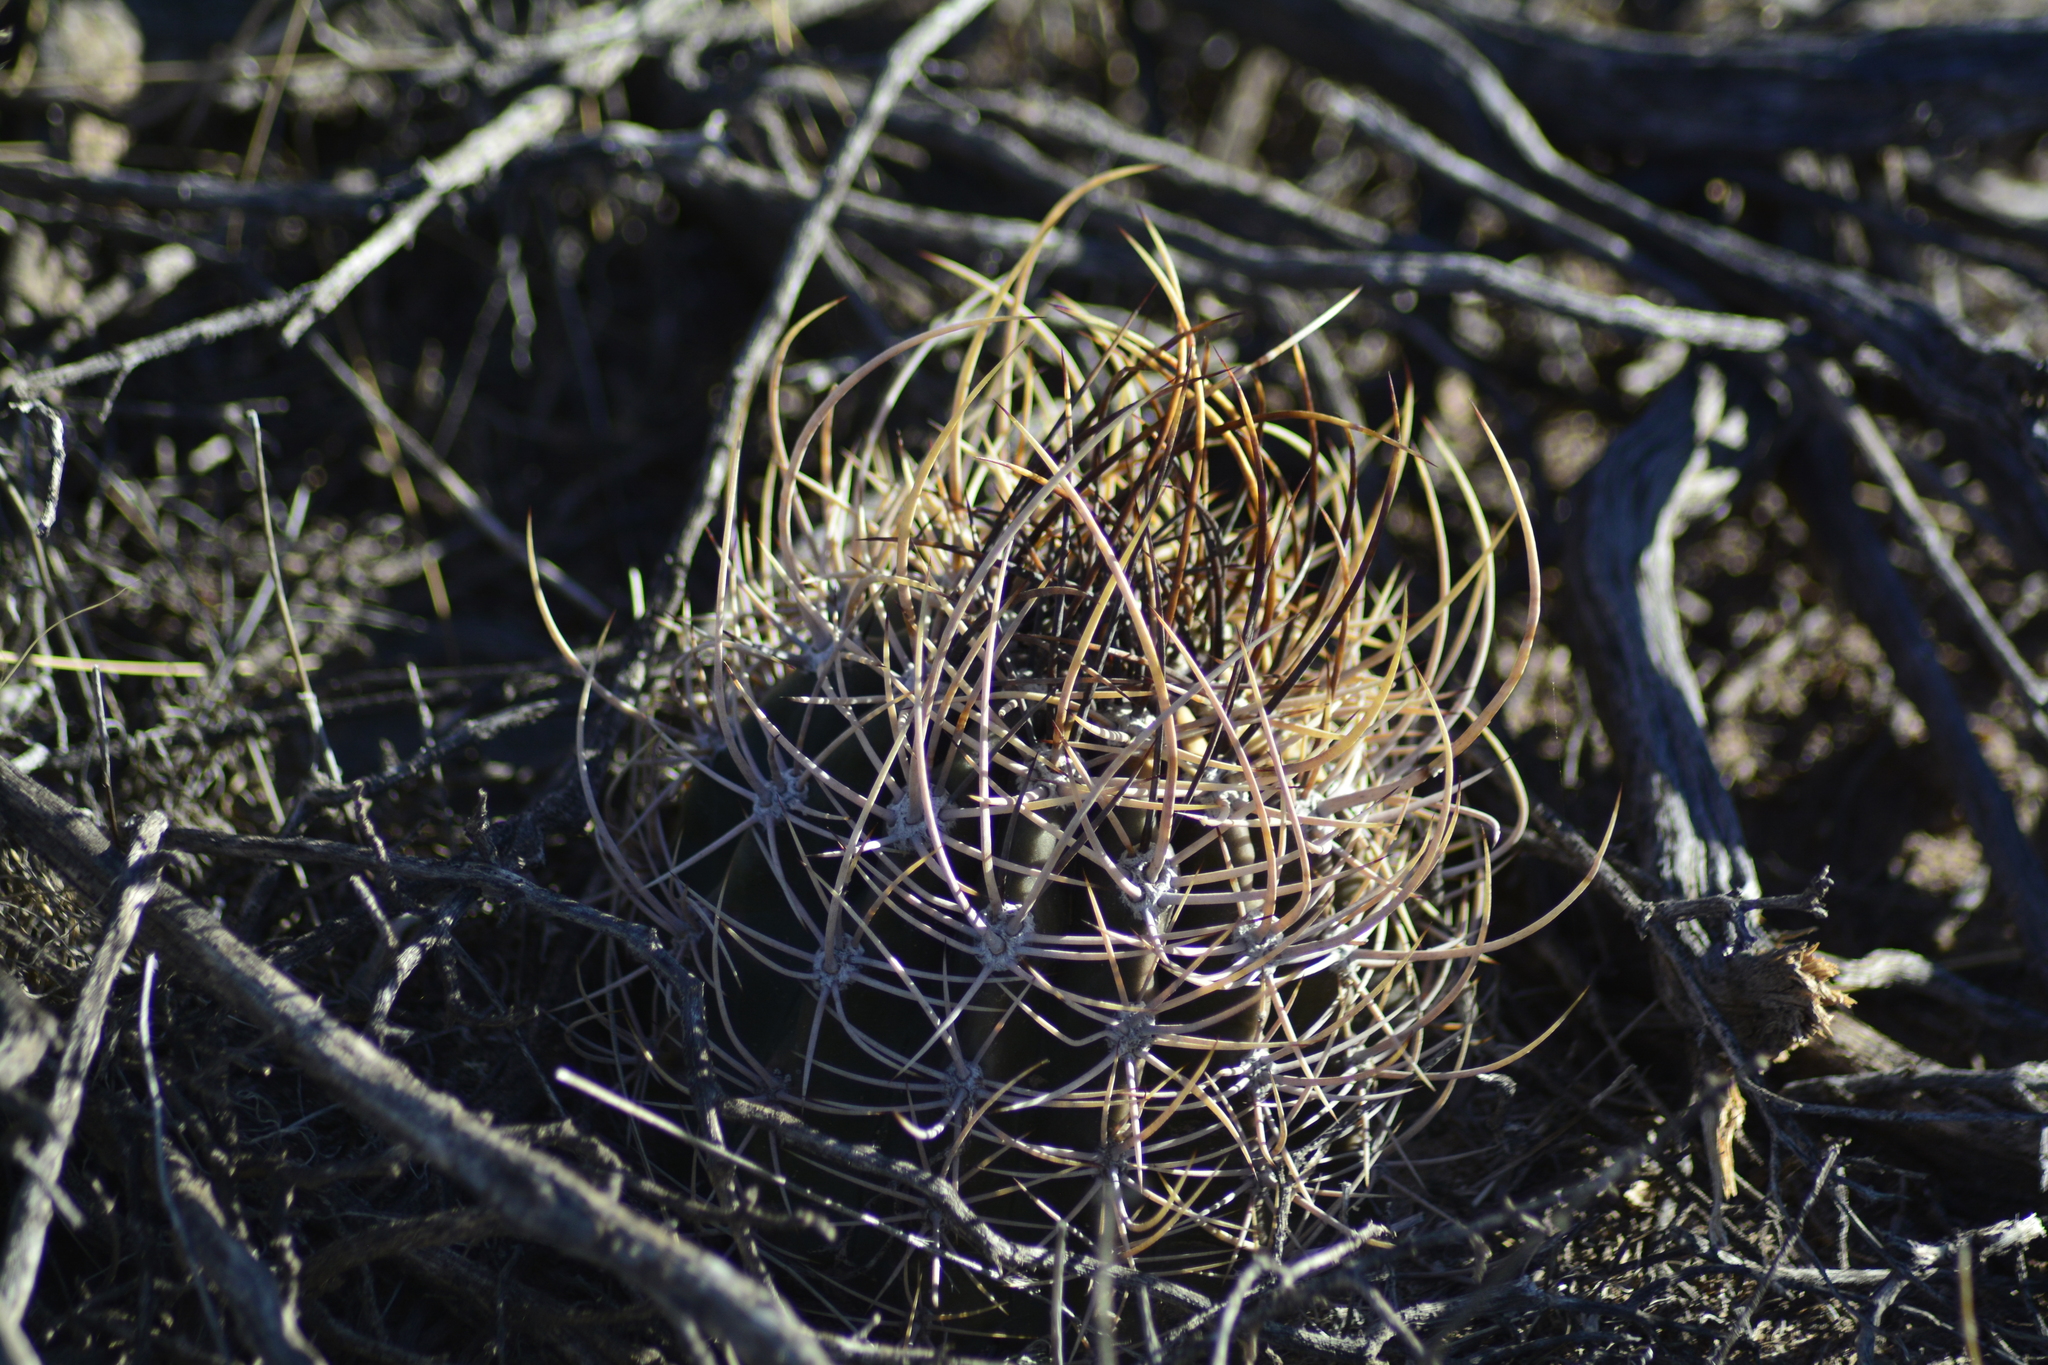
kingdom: Plantae
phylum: Tracheophyta
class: Magnoliopsida
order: Caryophyllales
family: Cactaceae
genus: Acanthocalycium
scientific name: Acanthocalycium leucanthum
